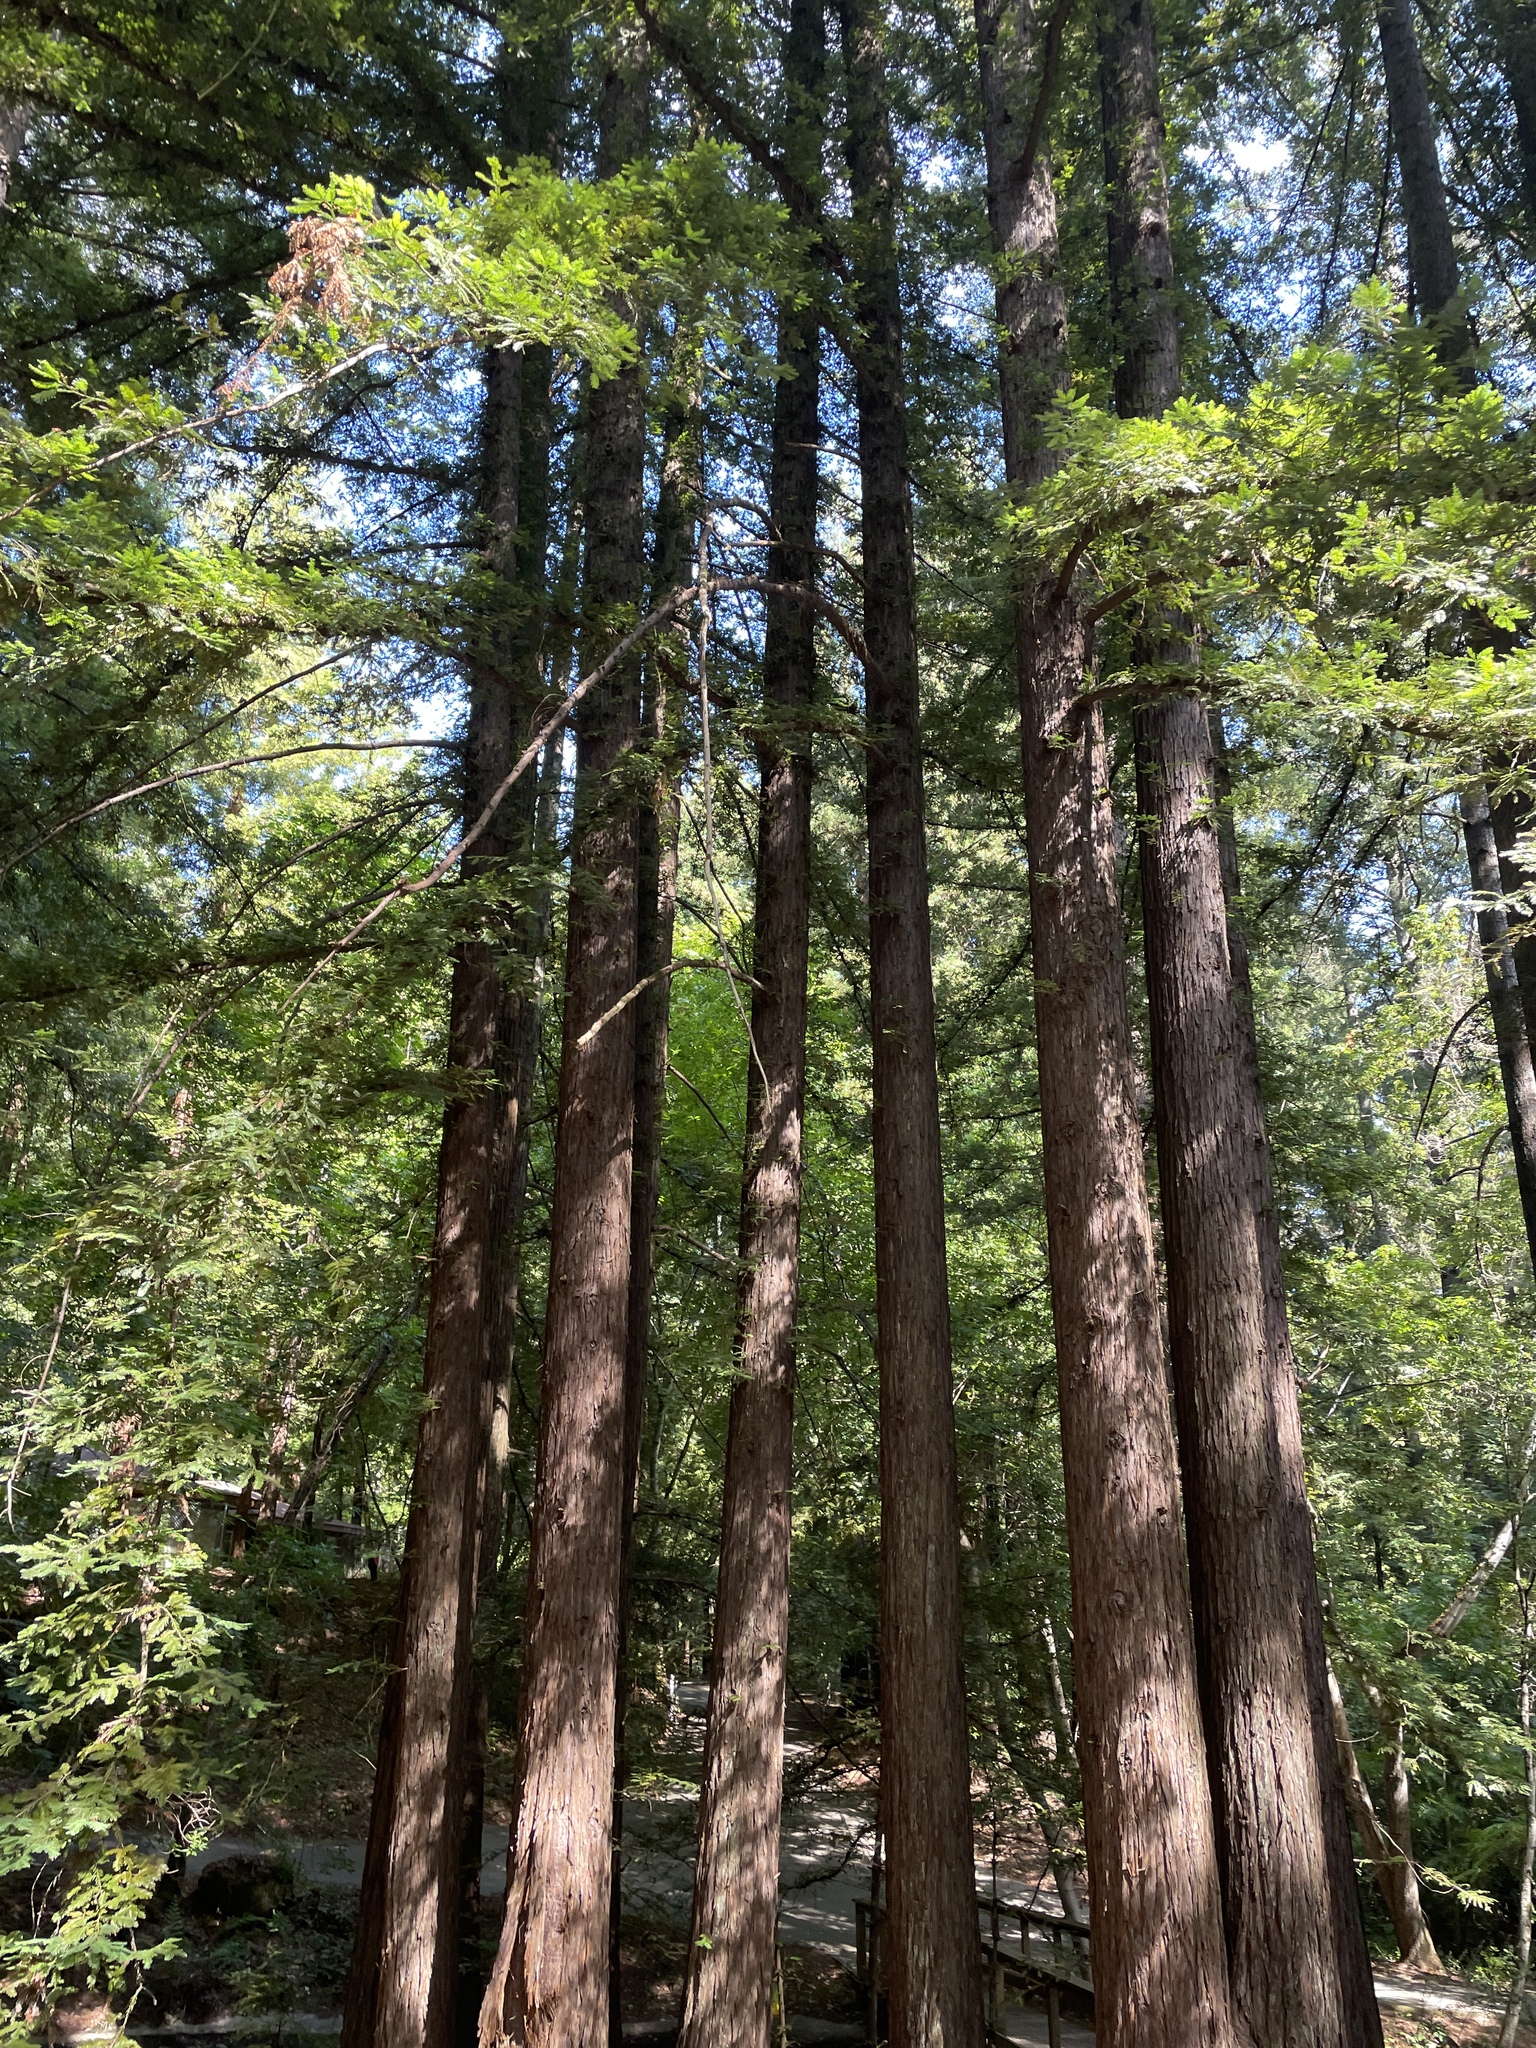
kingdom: Plantae
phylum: Tracheophyta
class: Pinopsida
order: Pinales
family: Cupressaceae
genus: Sequoia
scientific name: Sequoia sempervirens
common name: Coast redwood
